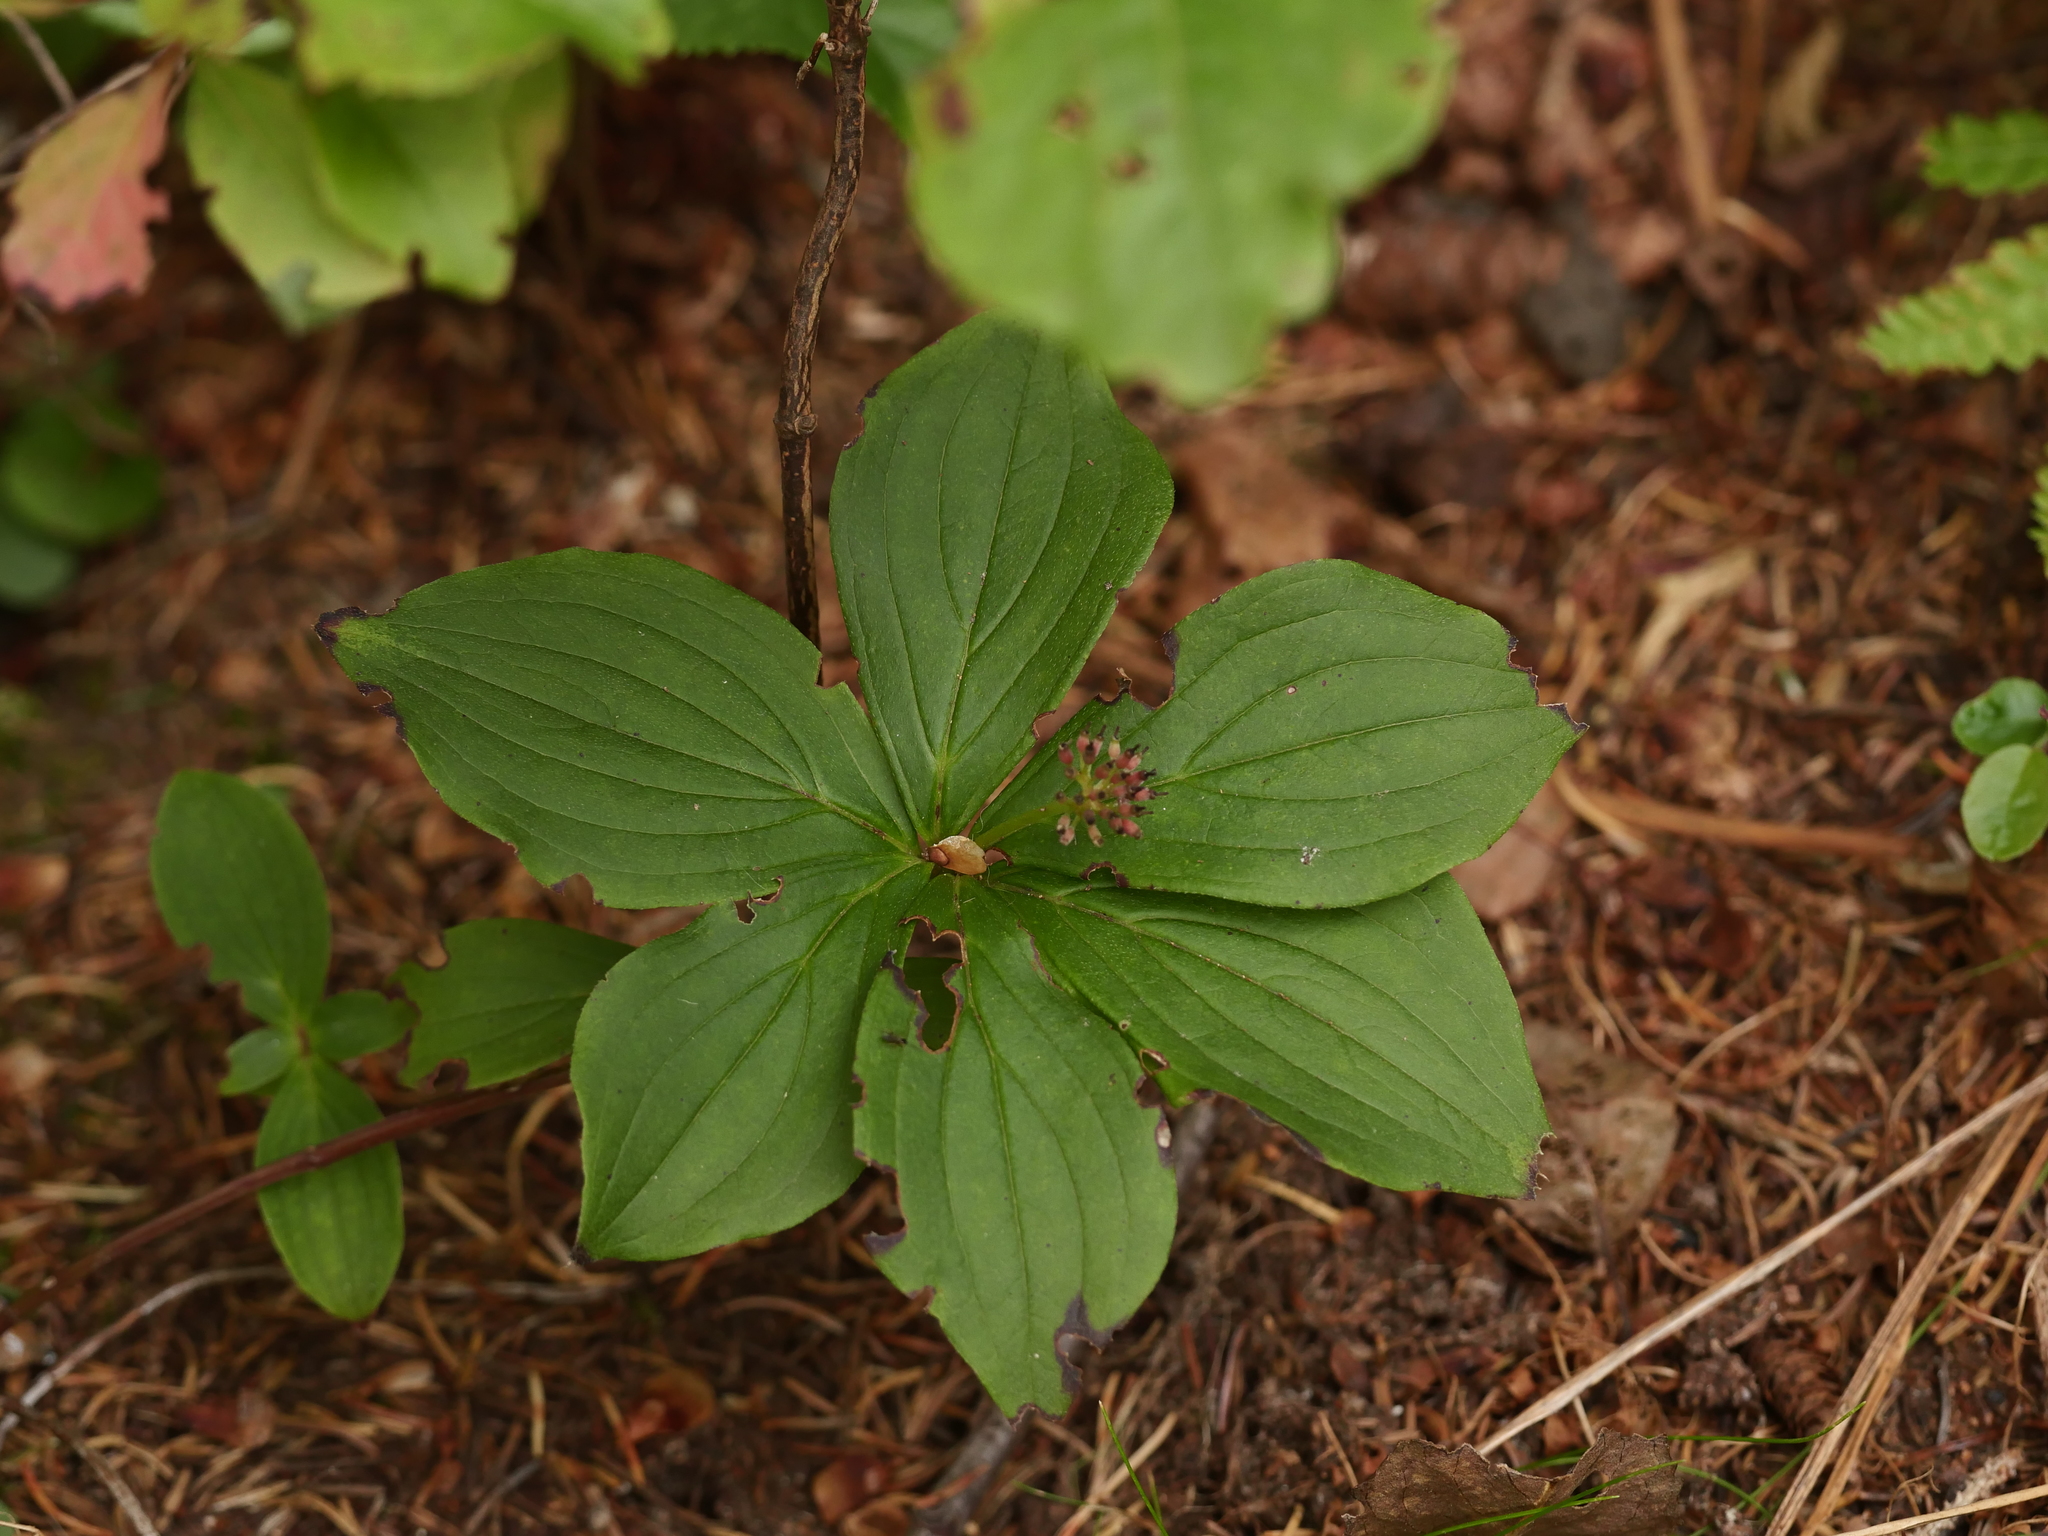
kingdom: Plantae
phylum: Tracheophyta
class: Magnoliopsida
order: Cornales
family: Cornaceae
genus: Cornus
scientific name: Cornus canadensis
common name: Creeping dogwood
